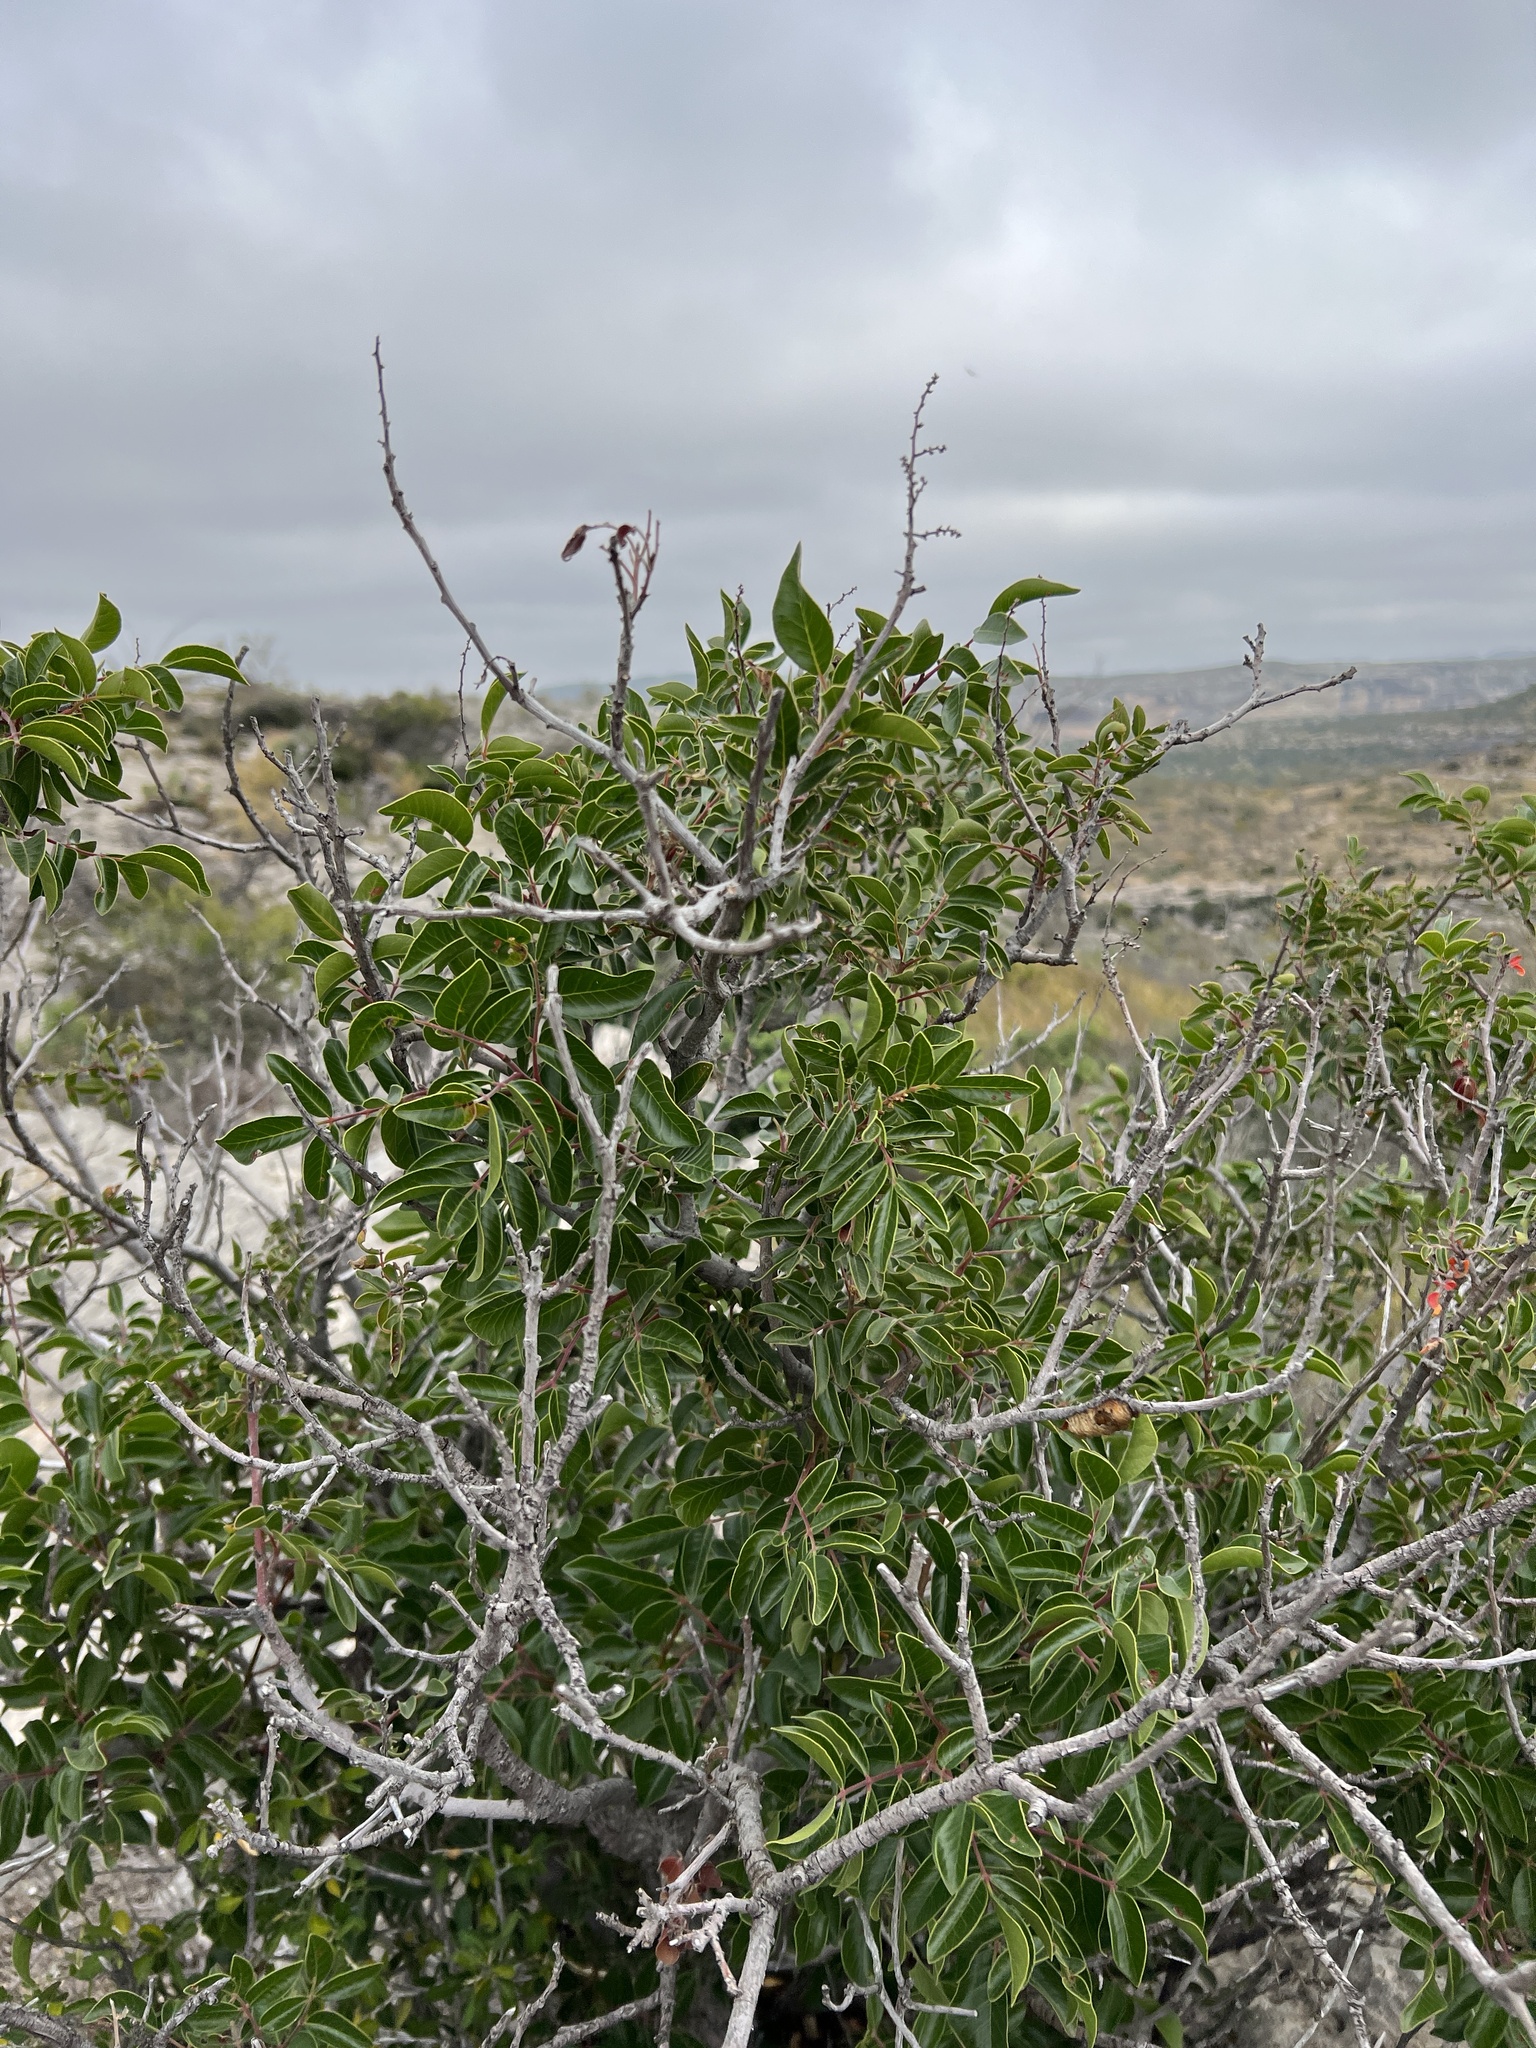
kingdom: Plantae
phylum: Tracheophyta
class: Magnoliopsida
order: Rosales
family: Rhamnaceae
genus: Karwinskia
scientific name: Karwinskia humboldtiana
